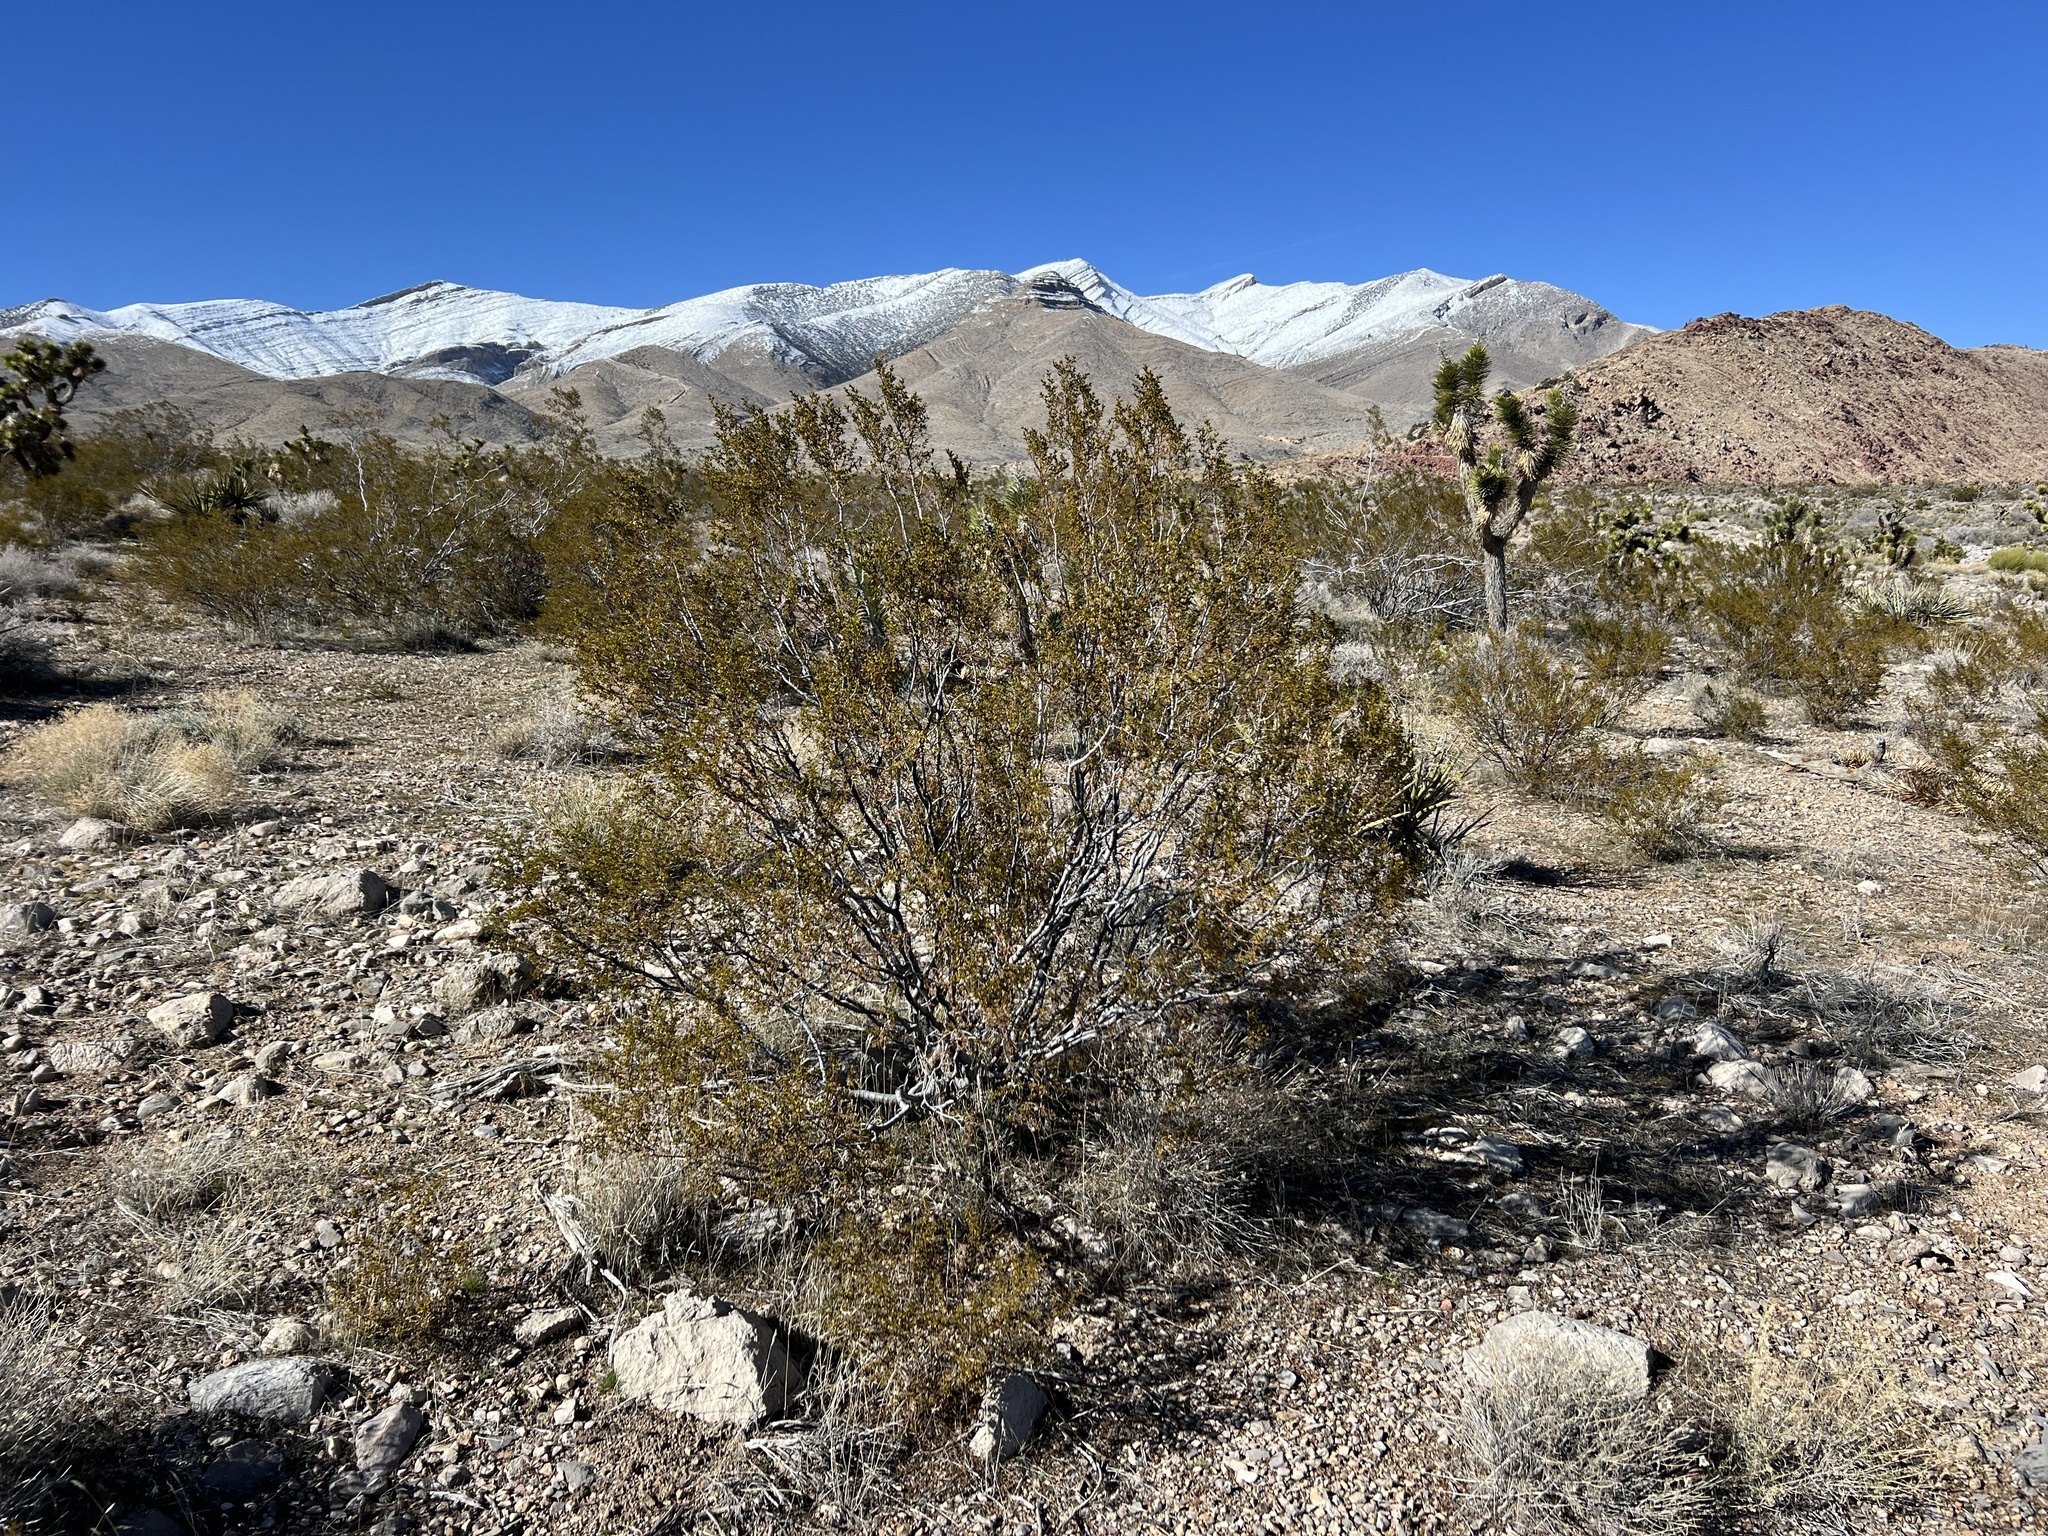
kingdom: Plantae
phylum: Tracheophyta
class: Magnoliopsida
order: Zygophyllales
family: Zygophyllaceae
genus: Larrea
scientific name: Larrea tridentata
